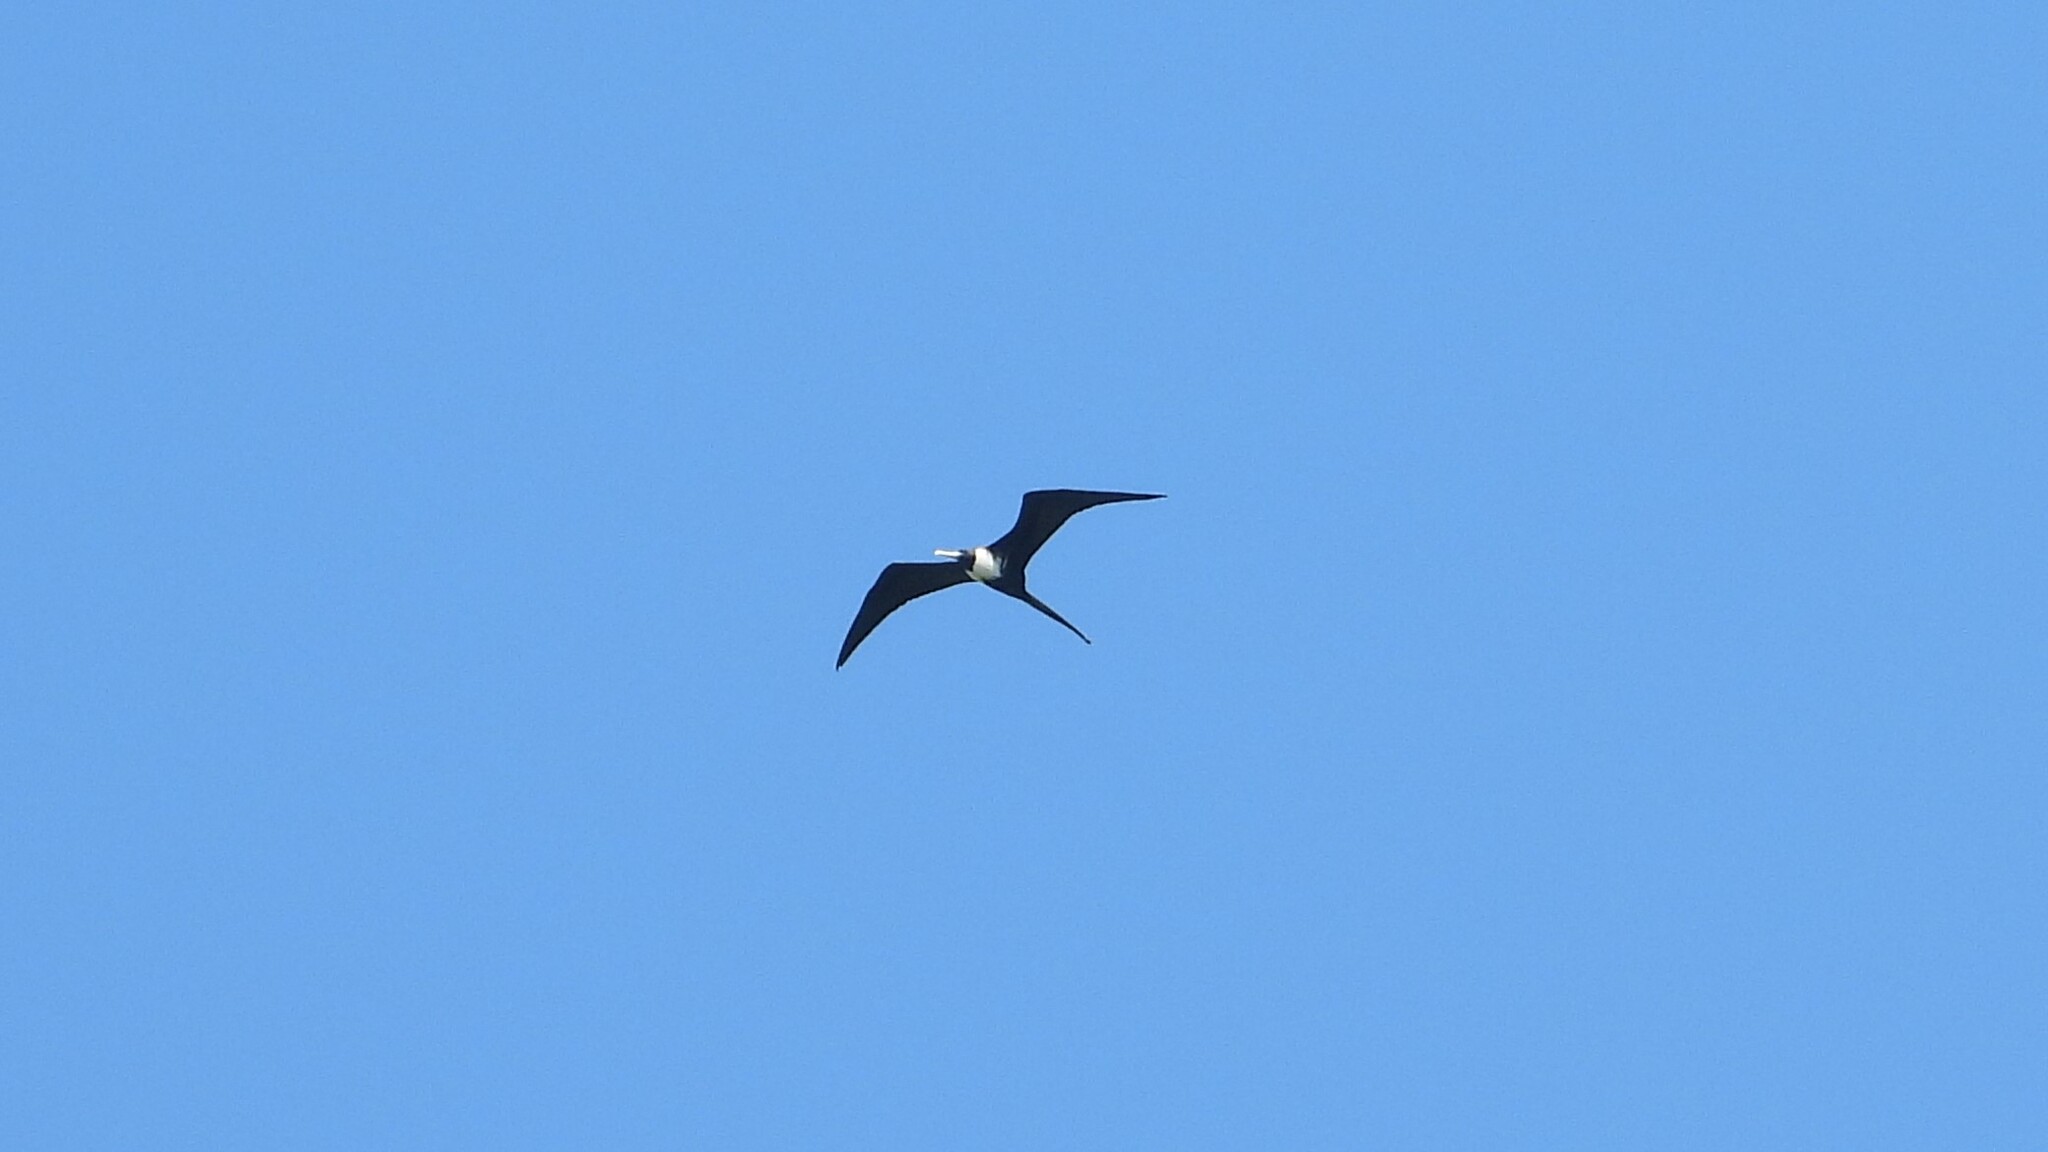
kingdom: Animalia
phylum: Chordata
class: Aves
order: Suliformes
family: Fregatidae
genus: Fregata
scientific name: Fregata magnificens
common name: Magnificent frigatebird
